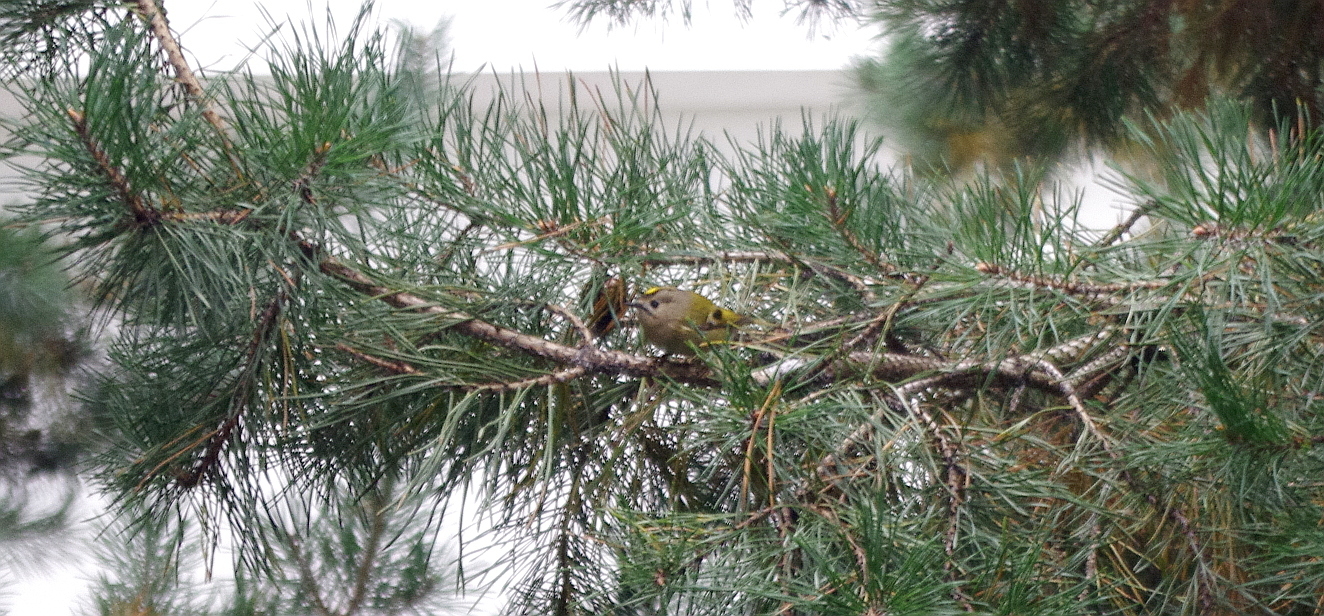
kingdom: Animalia
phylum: Chordata
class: Aves
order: Passeriformes
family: Regulidae
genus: Regulus
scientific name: Regulus regulus
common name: Goldcrest
